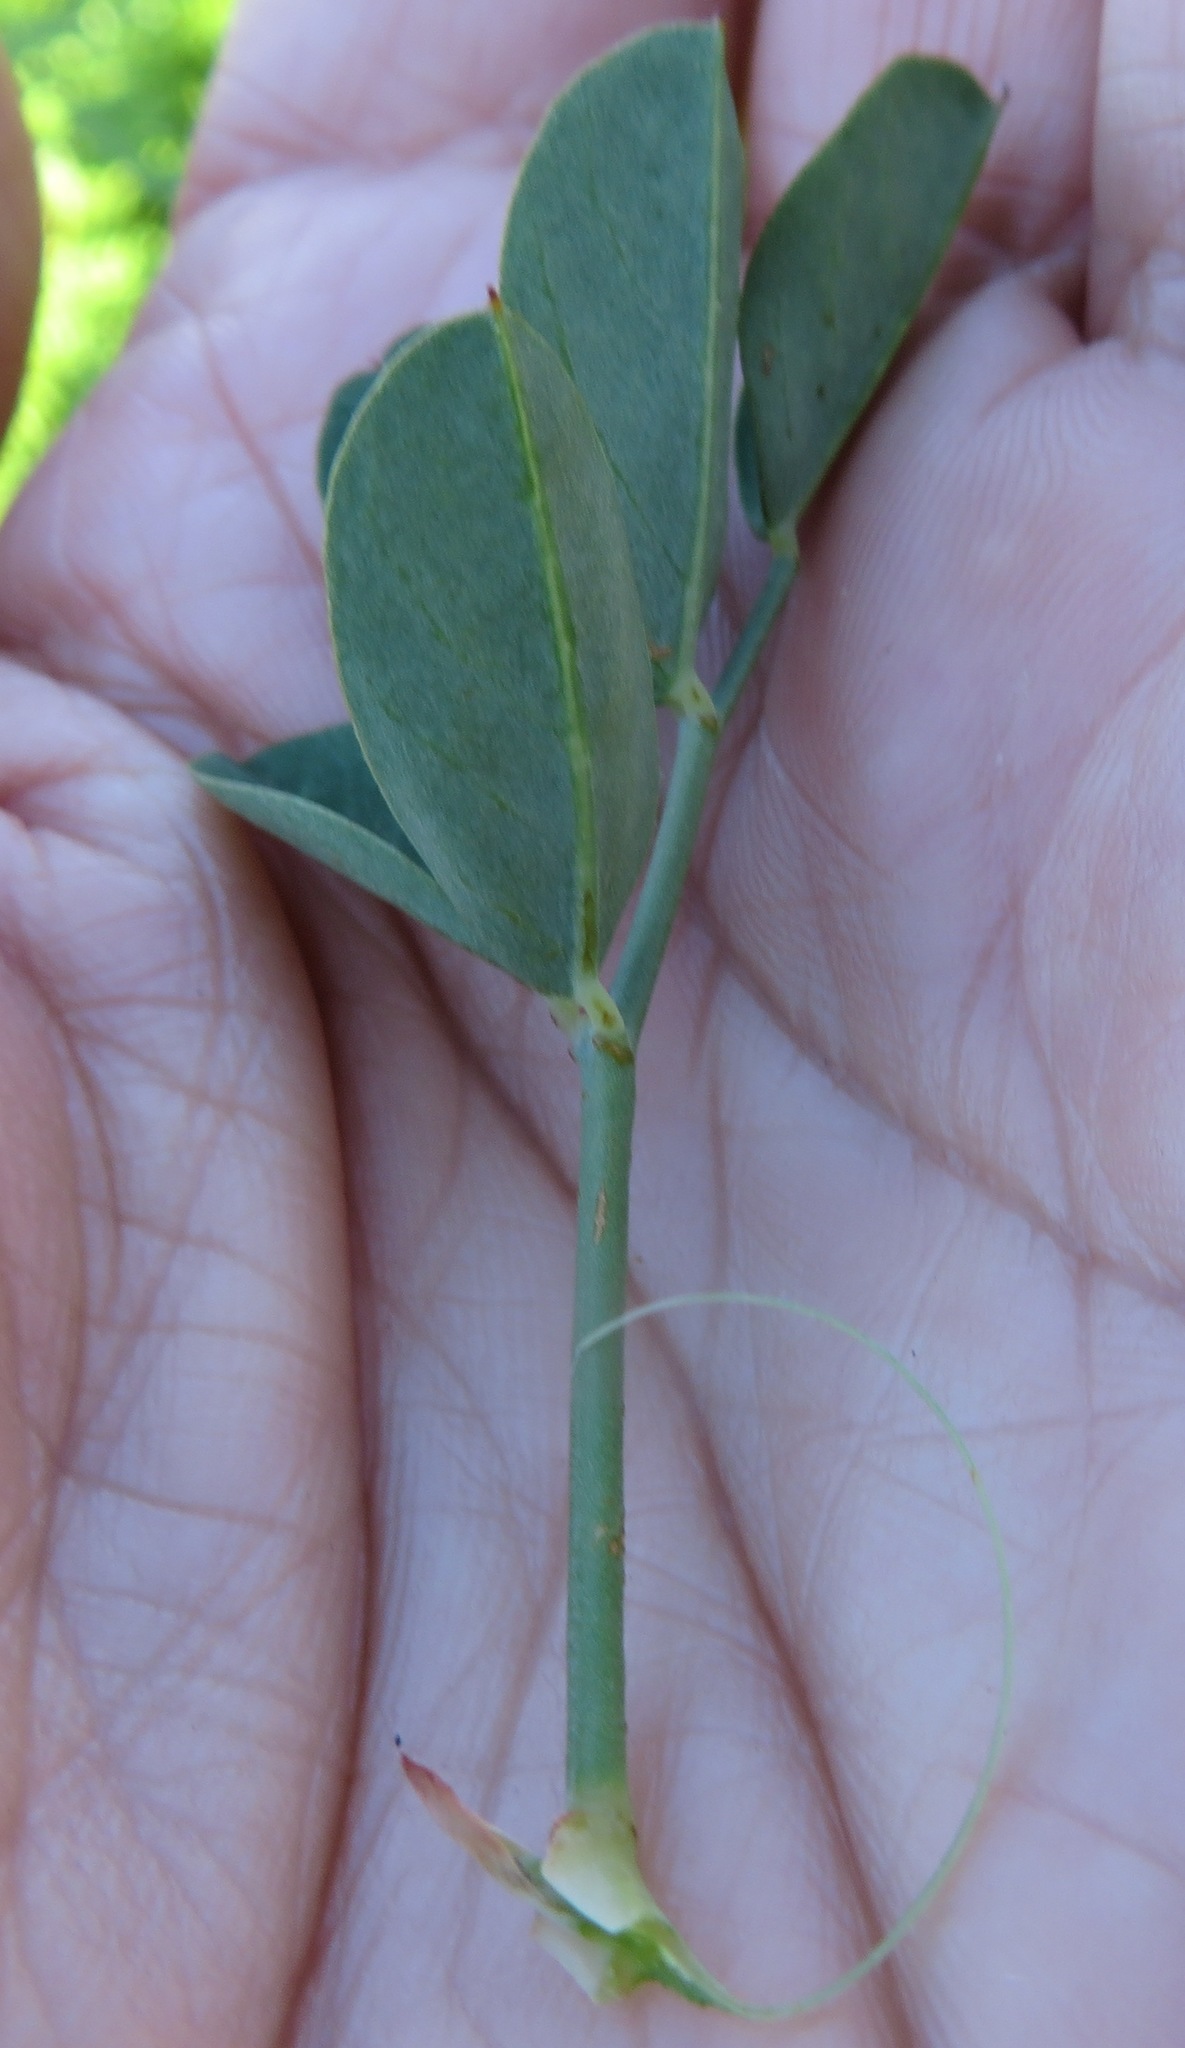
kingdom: Plantae
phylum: Tracheophyta
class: Magnoliopsida
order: Fabales
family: Fabaceae
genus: Indigofera
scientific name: Indigofera fulcrata
